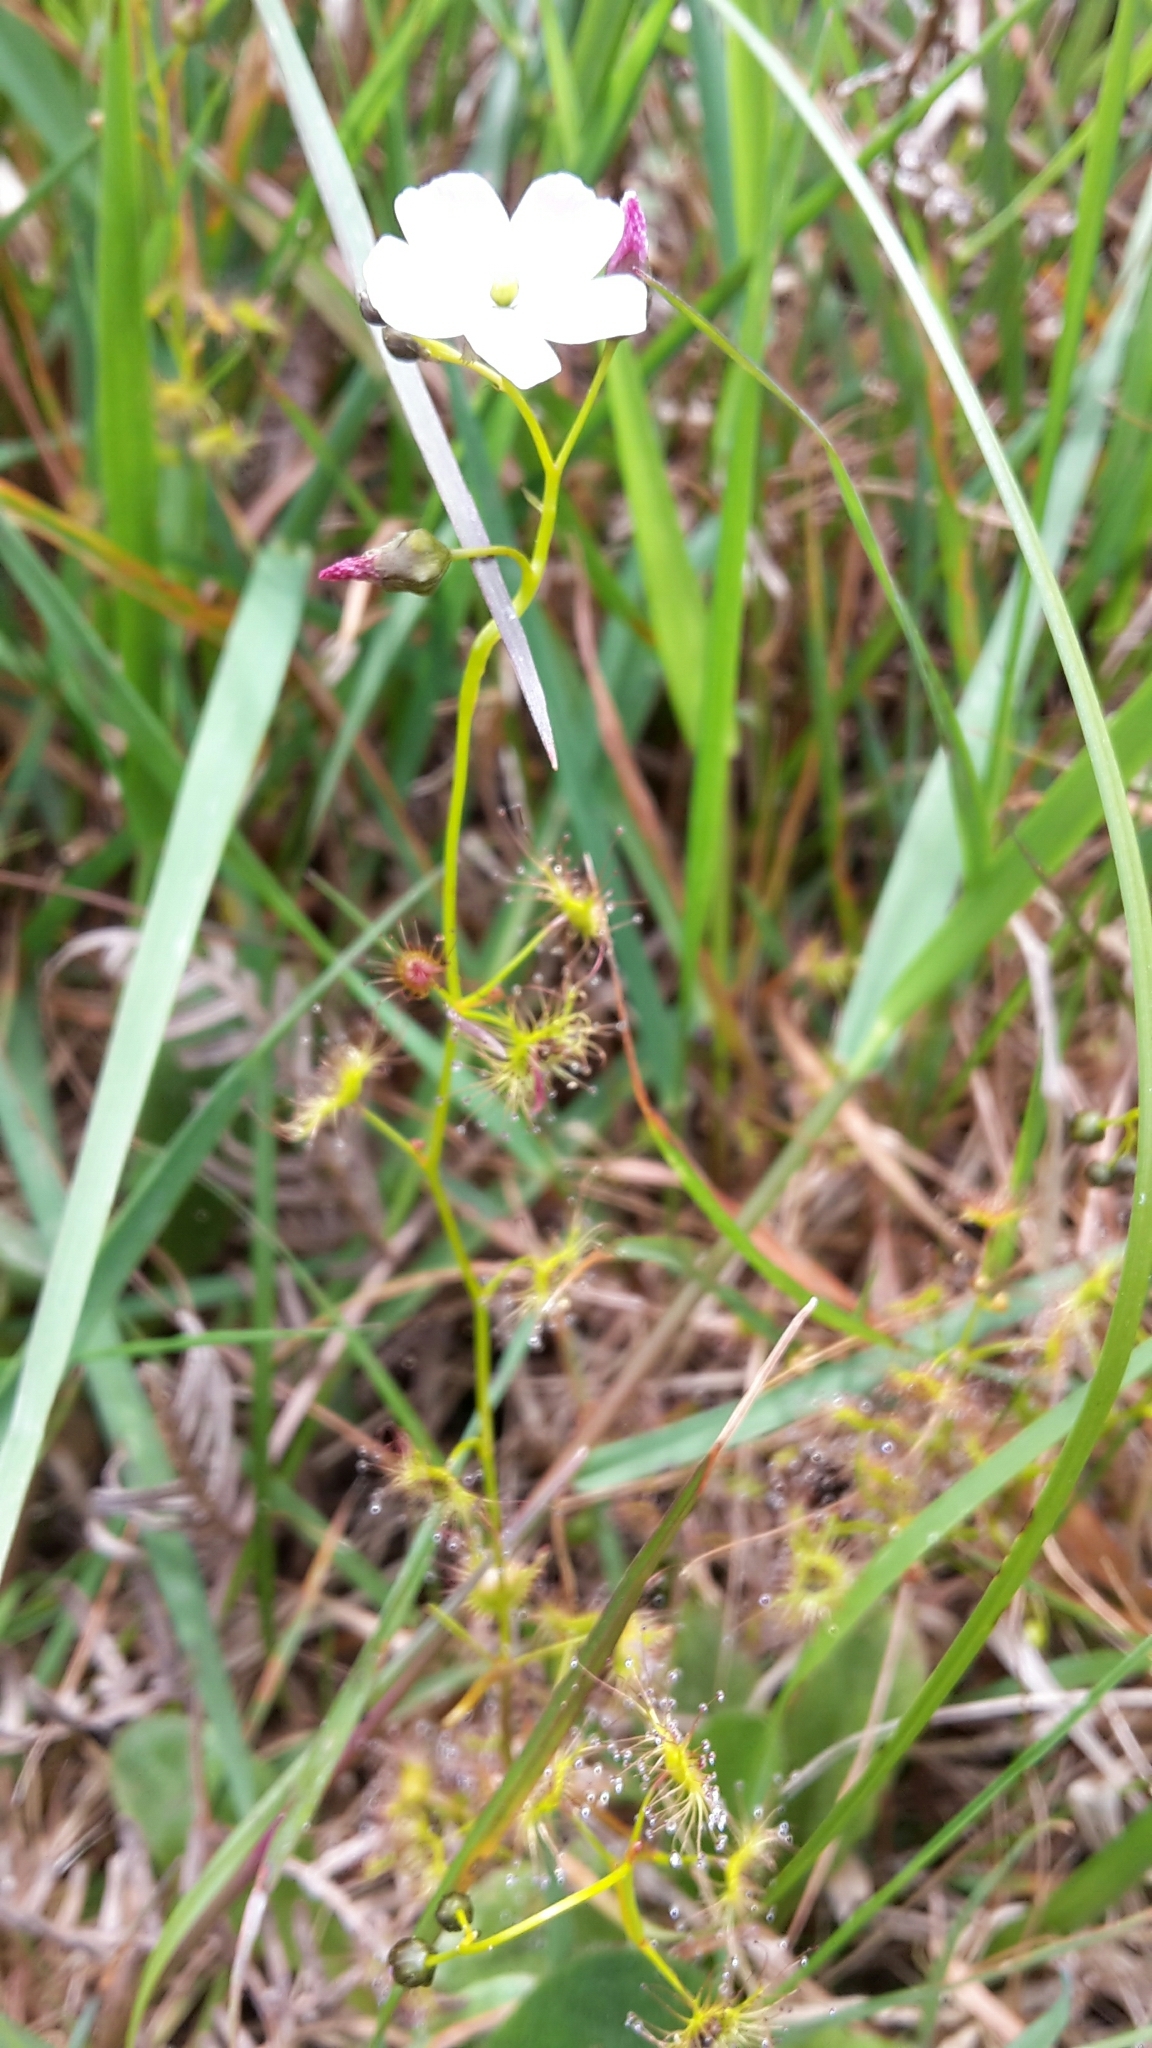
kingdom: Plantae
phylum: Tracheophyta
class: Magnoliopsida
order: Caryophyllales
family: Droseraceae
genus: Drosera
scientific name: Drosera peltata
